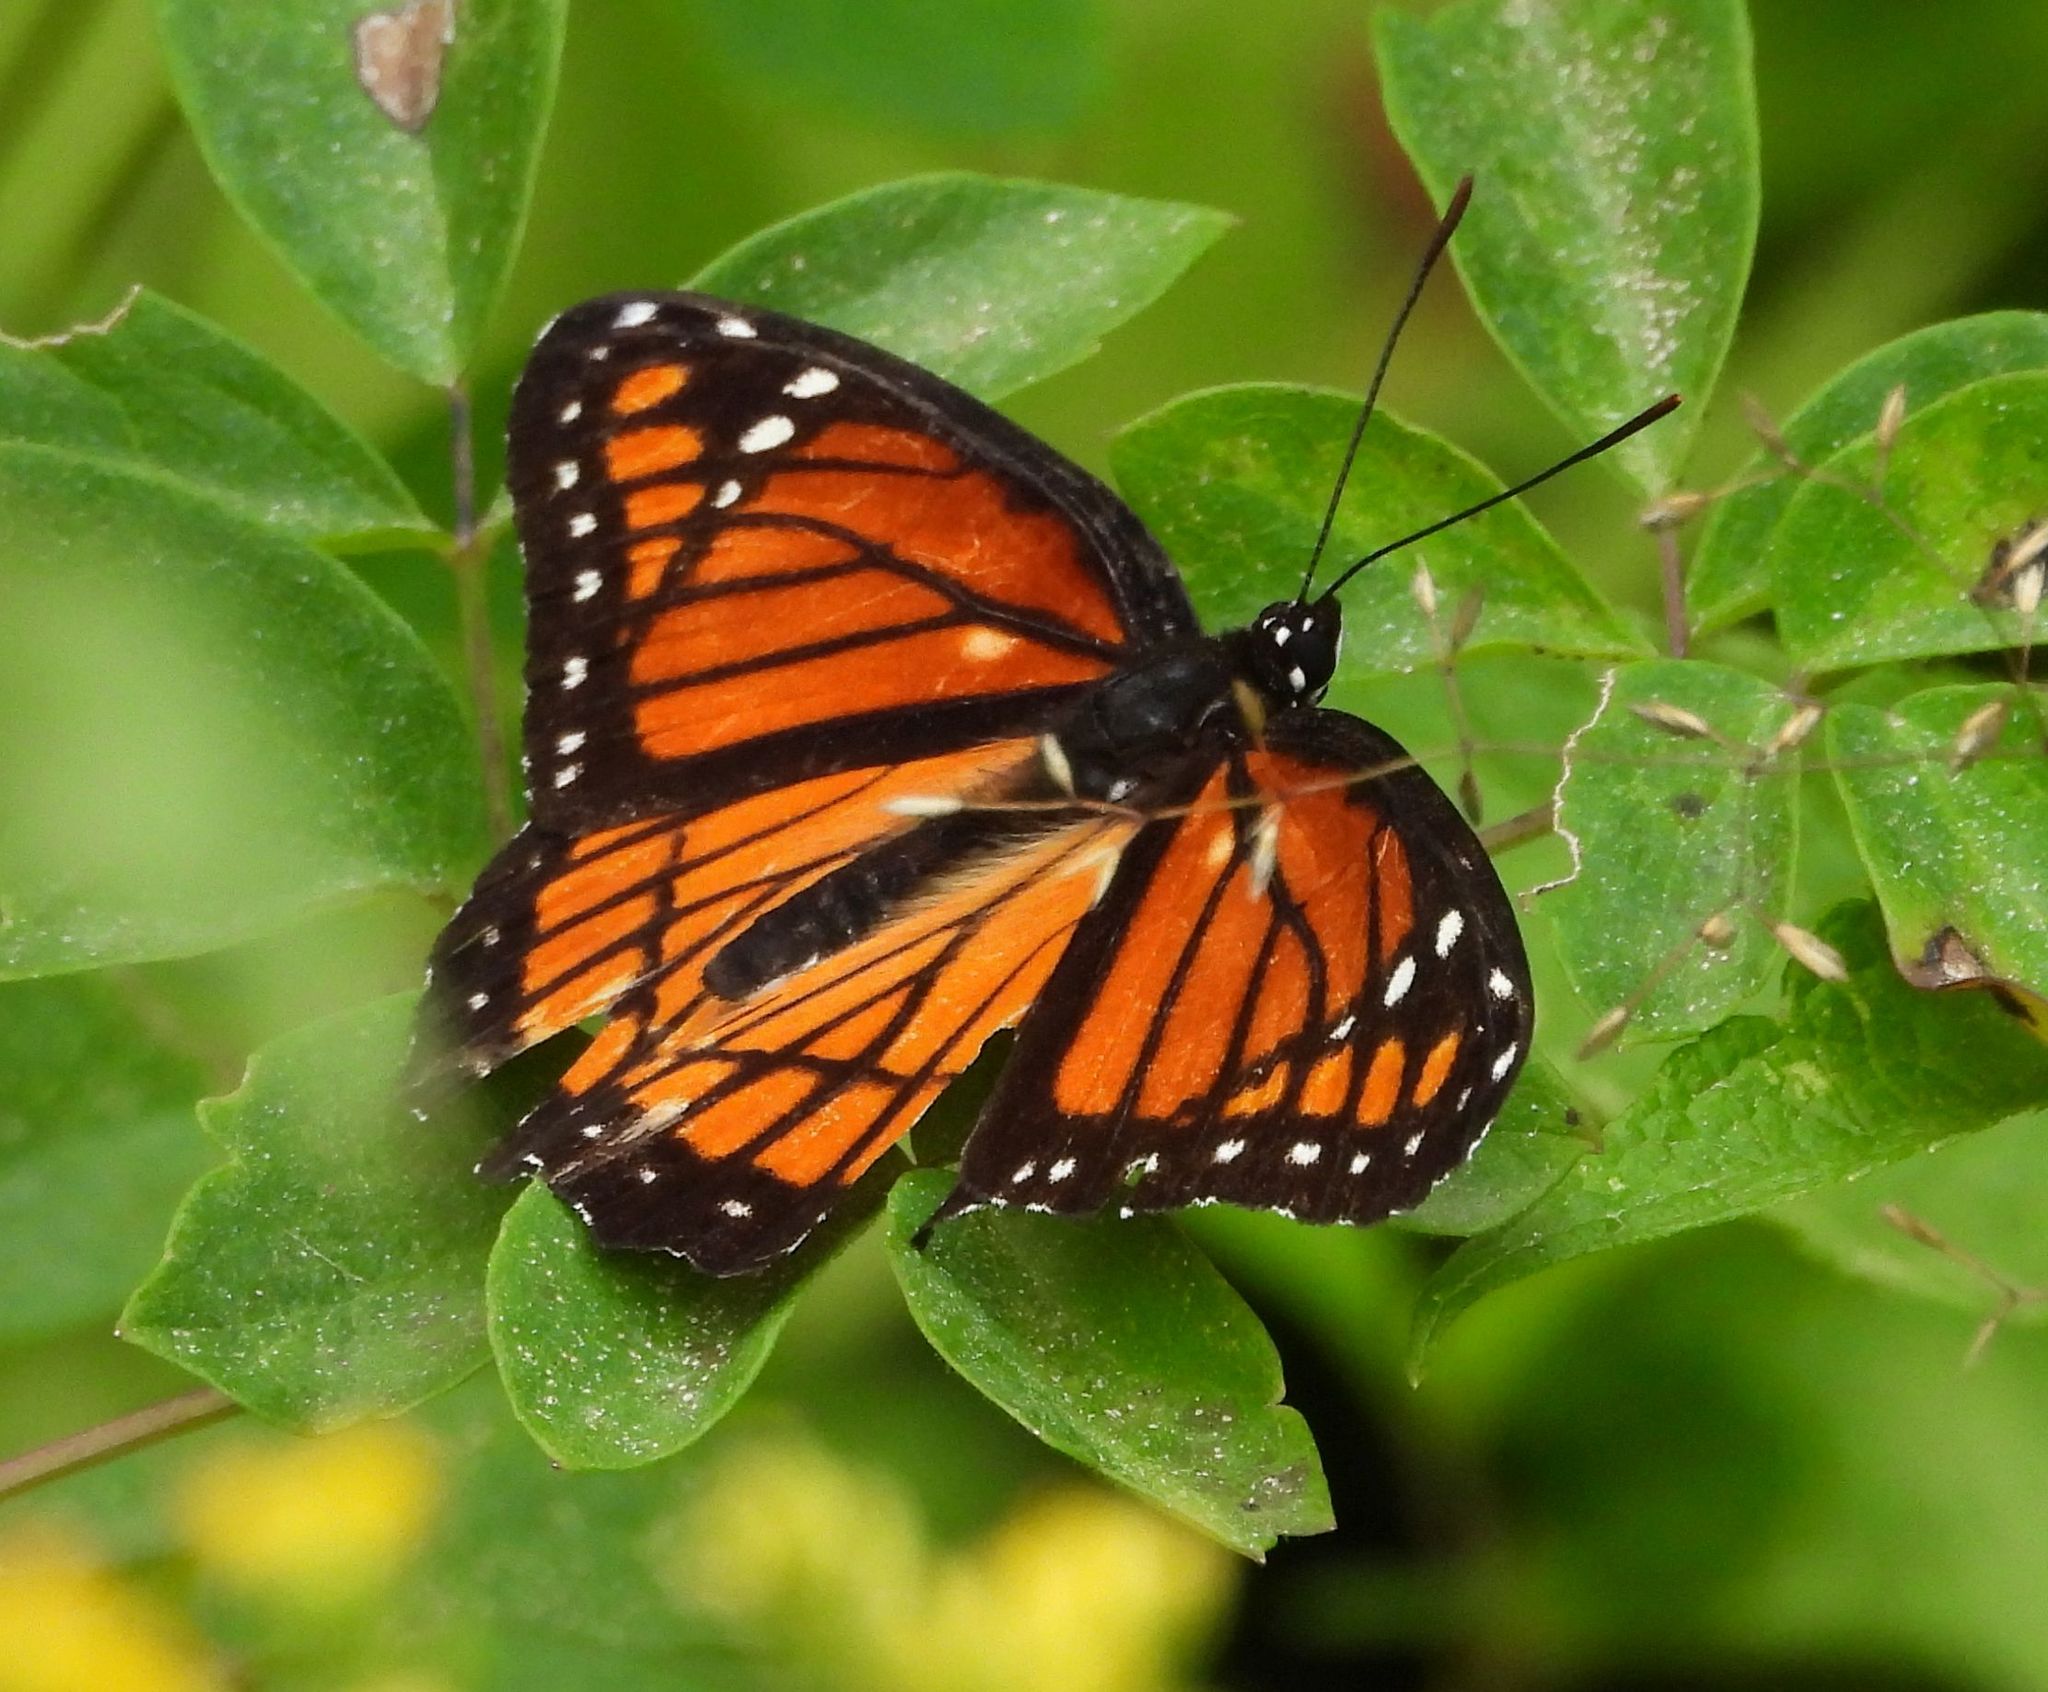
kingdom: Animalia
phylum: Arthropoda
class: Insecta
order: Lepidoptera
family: Nymphalidae
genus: Limenitis
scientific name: Limenitis archippus
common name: Viceroy
